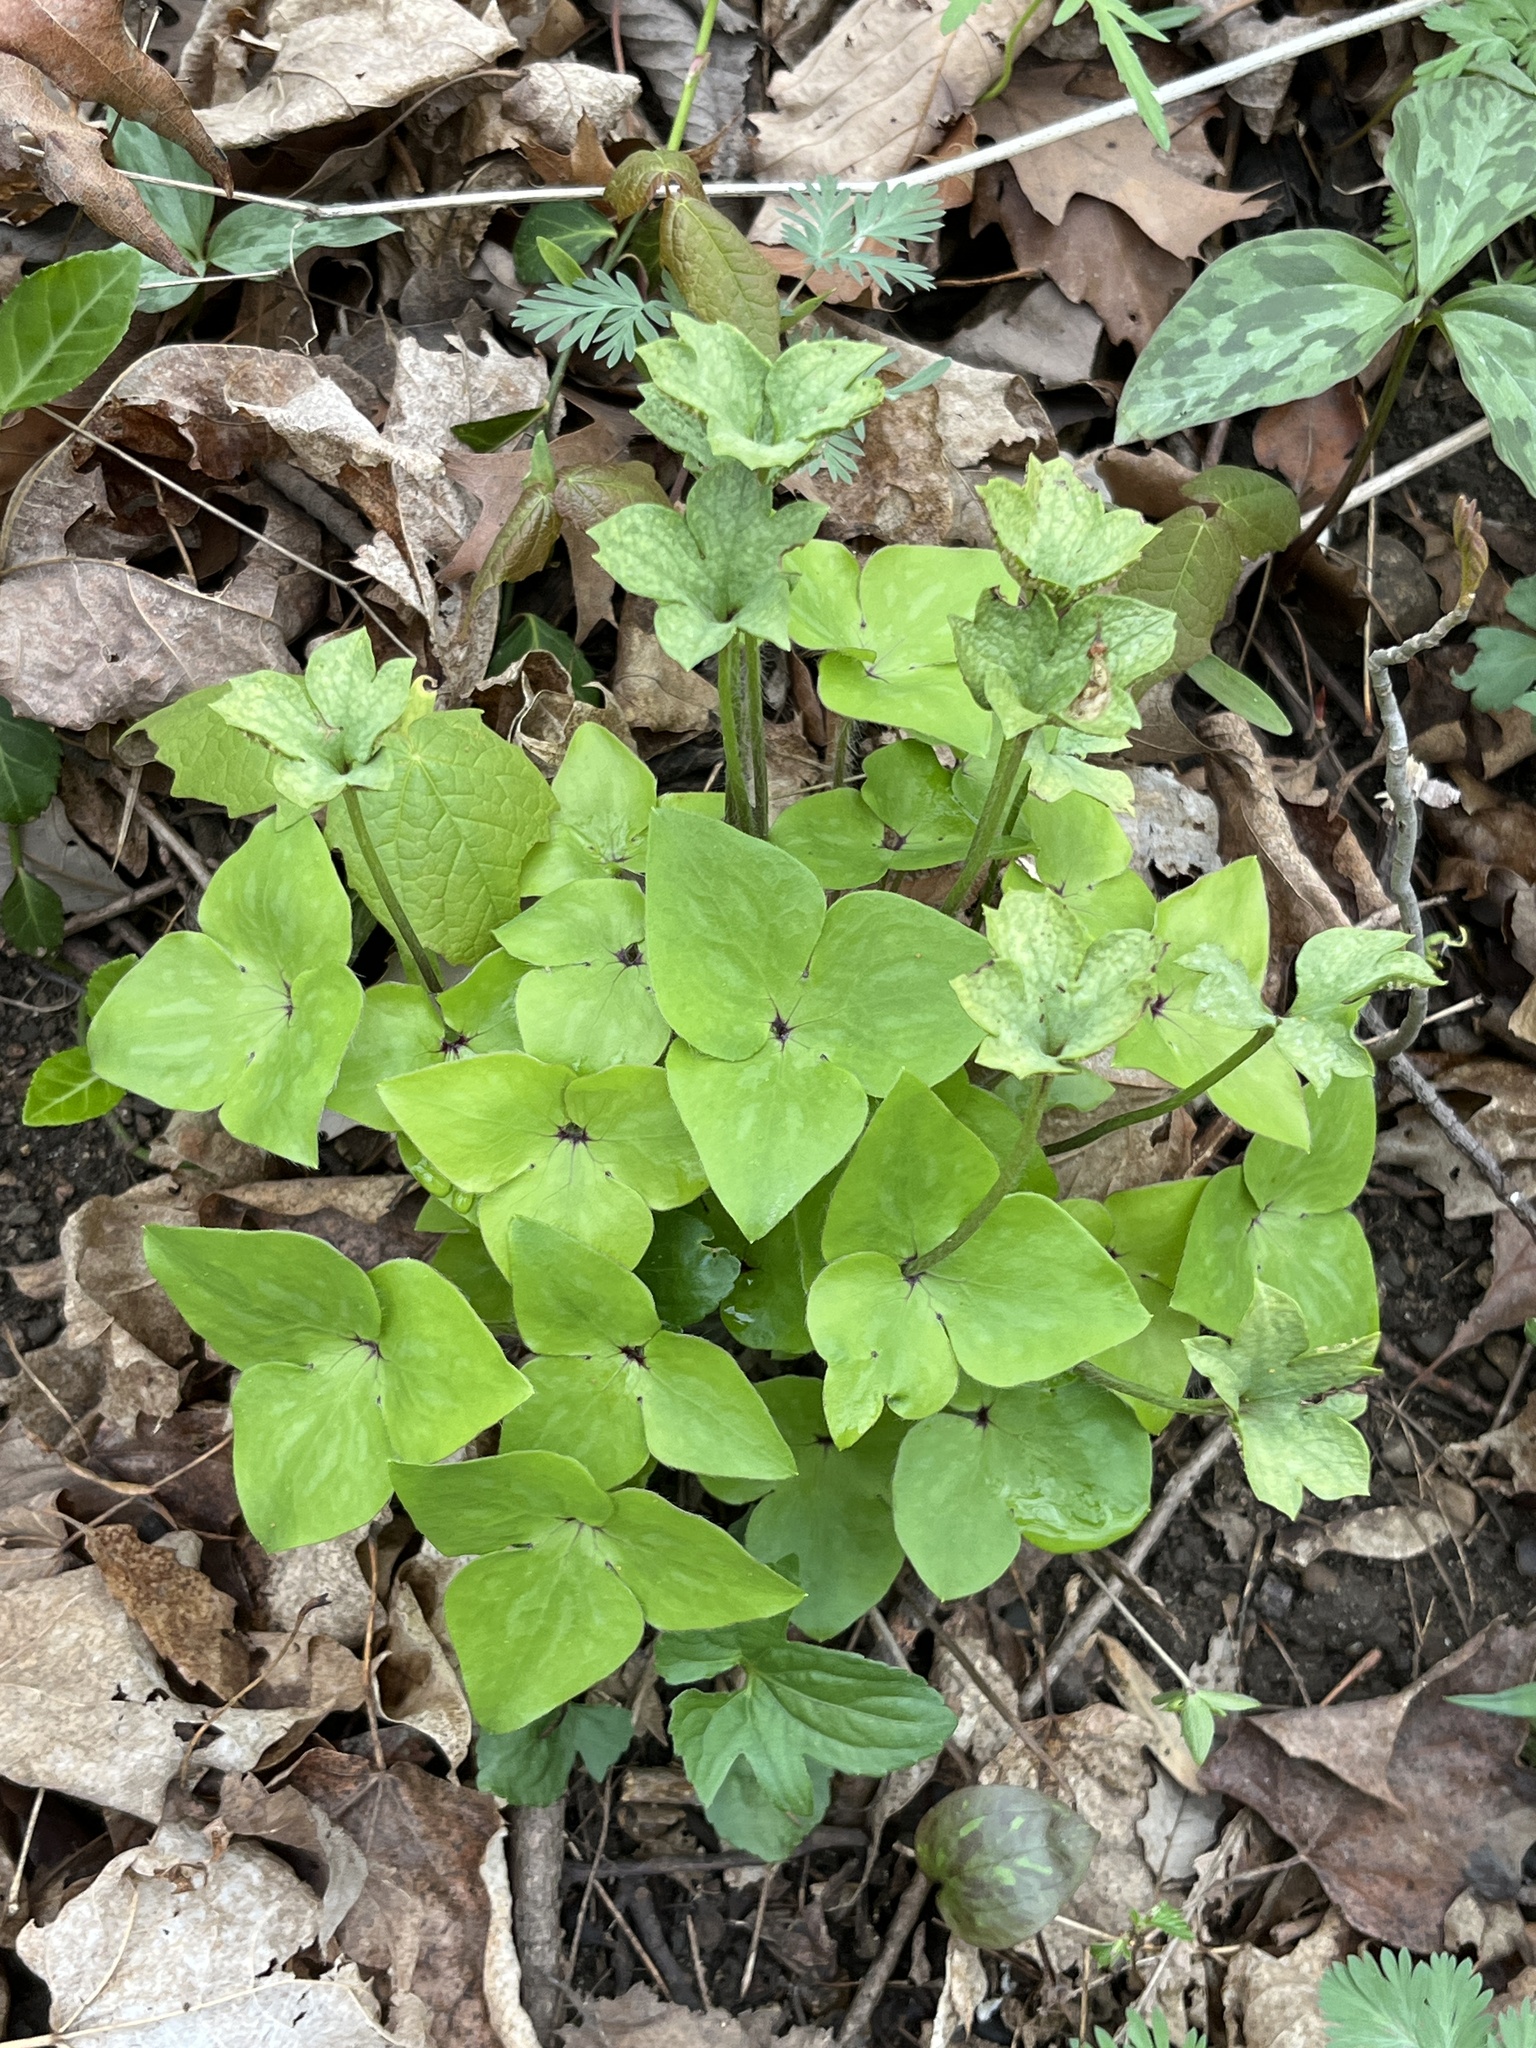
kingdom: Plantae
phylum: Tracheophyta
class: Magnoliopsida
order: Ranunculales
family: Ranunculaceae
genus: Hepatica
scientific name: Hepatica acutiloba
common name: Sharp-lobed hepatica
